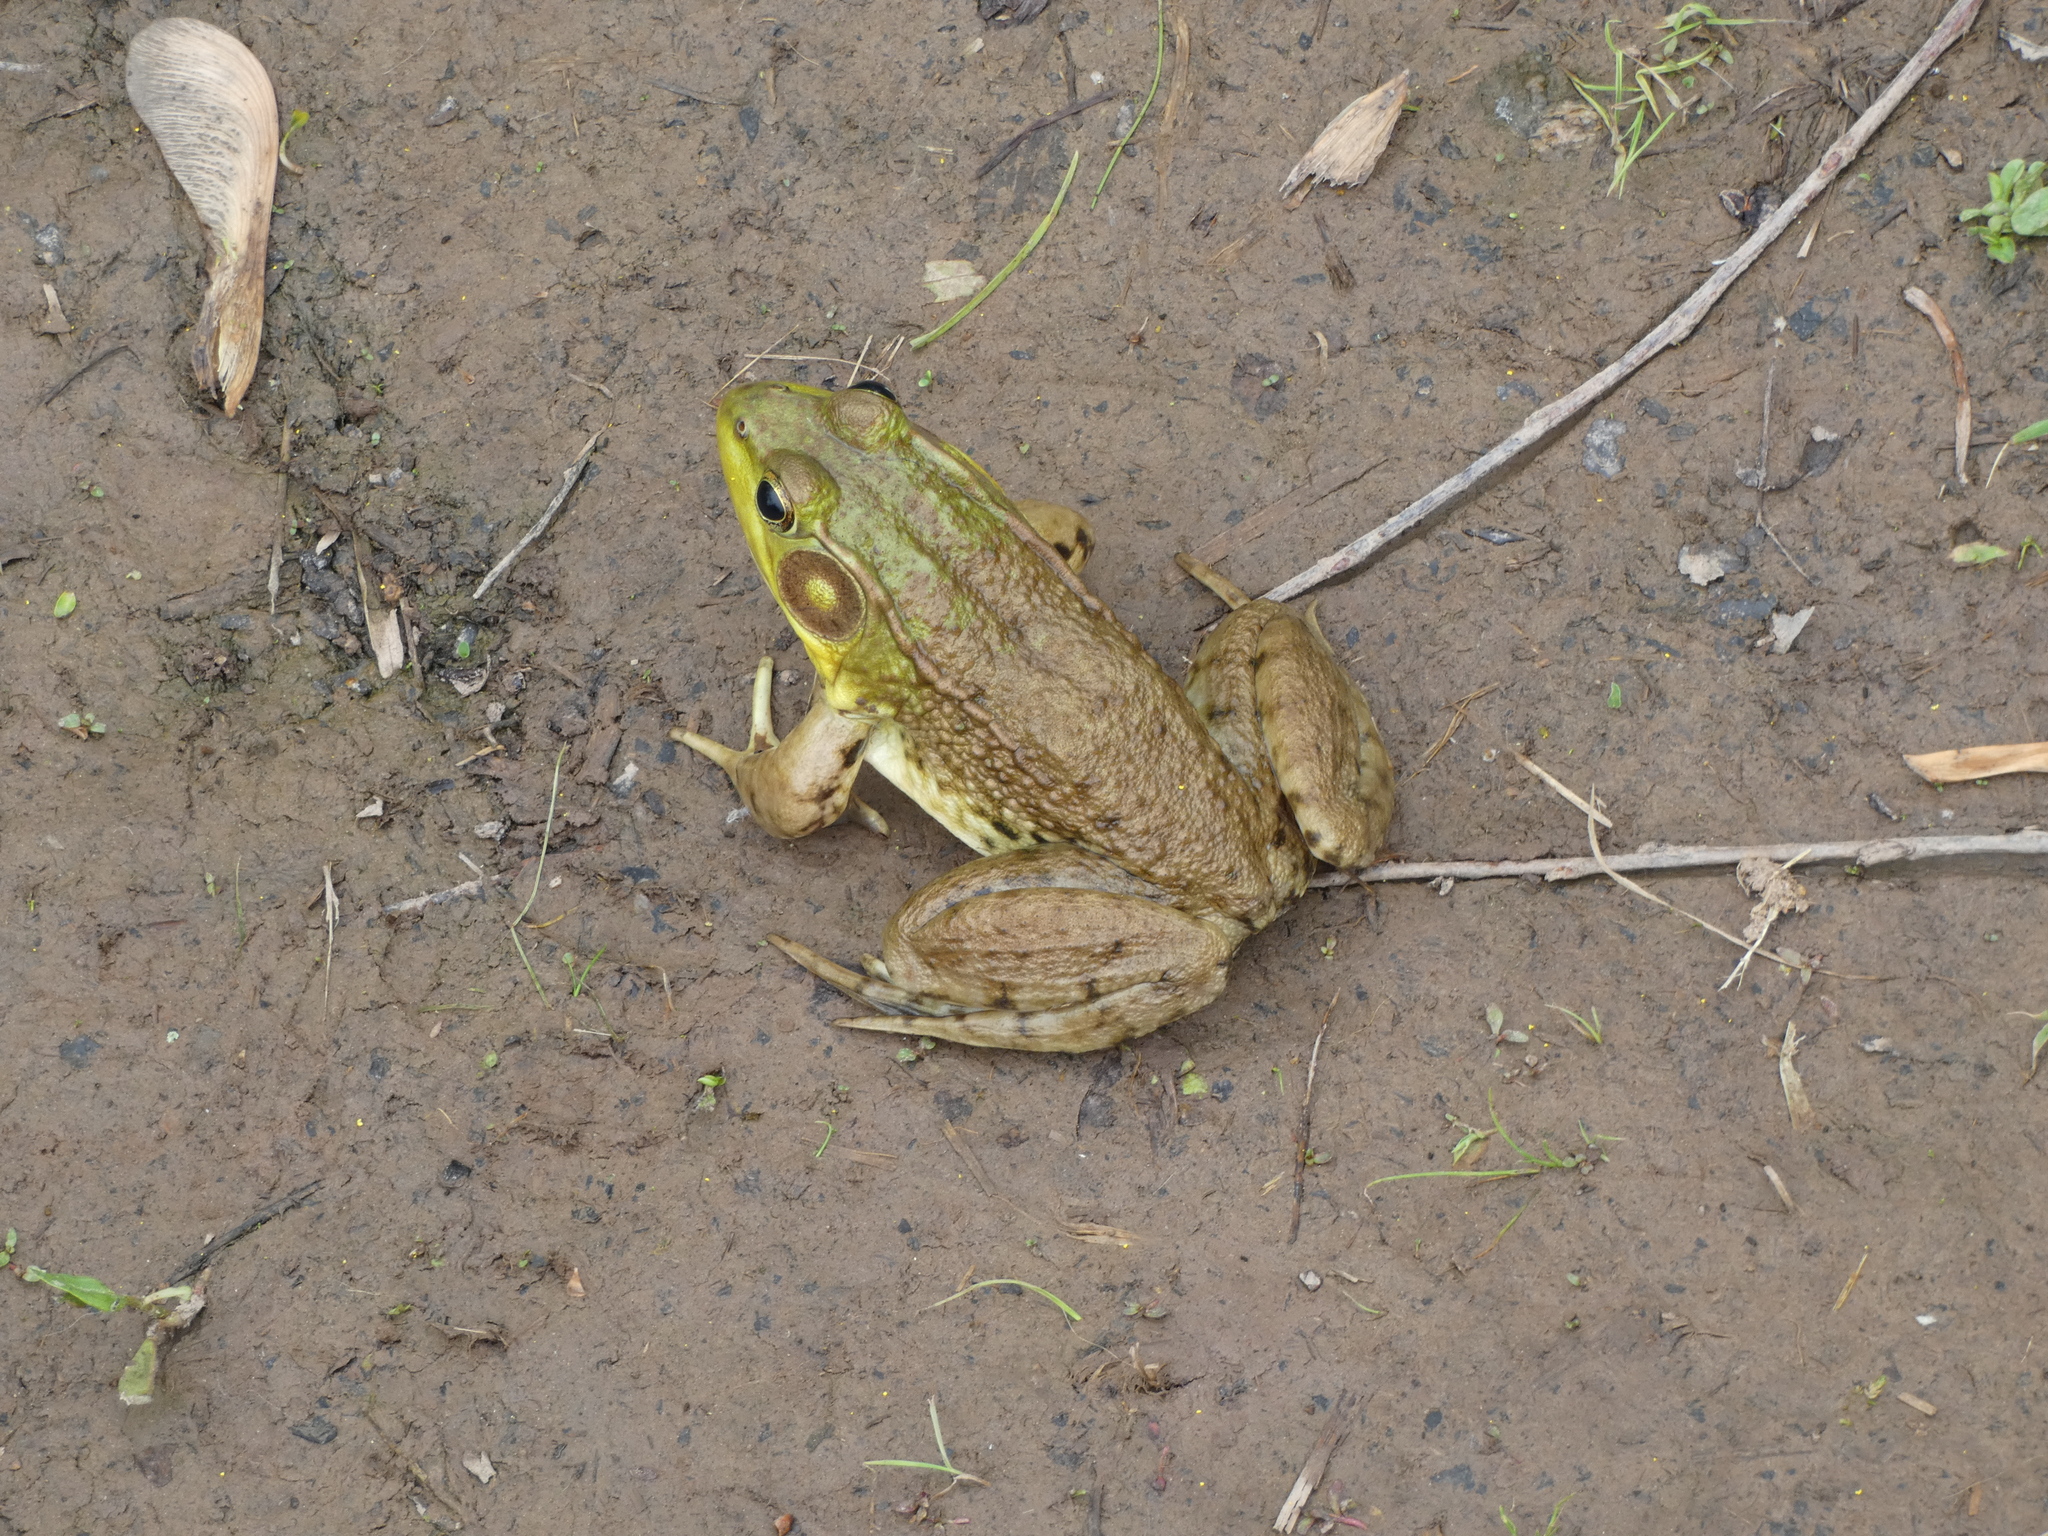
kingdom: Animalia
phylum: Chordata
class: Amphibia
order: Anura
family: Ranidae
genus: Lithobates
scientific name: Lithobates clamitans
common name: Green frog
